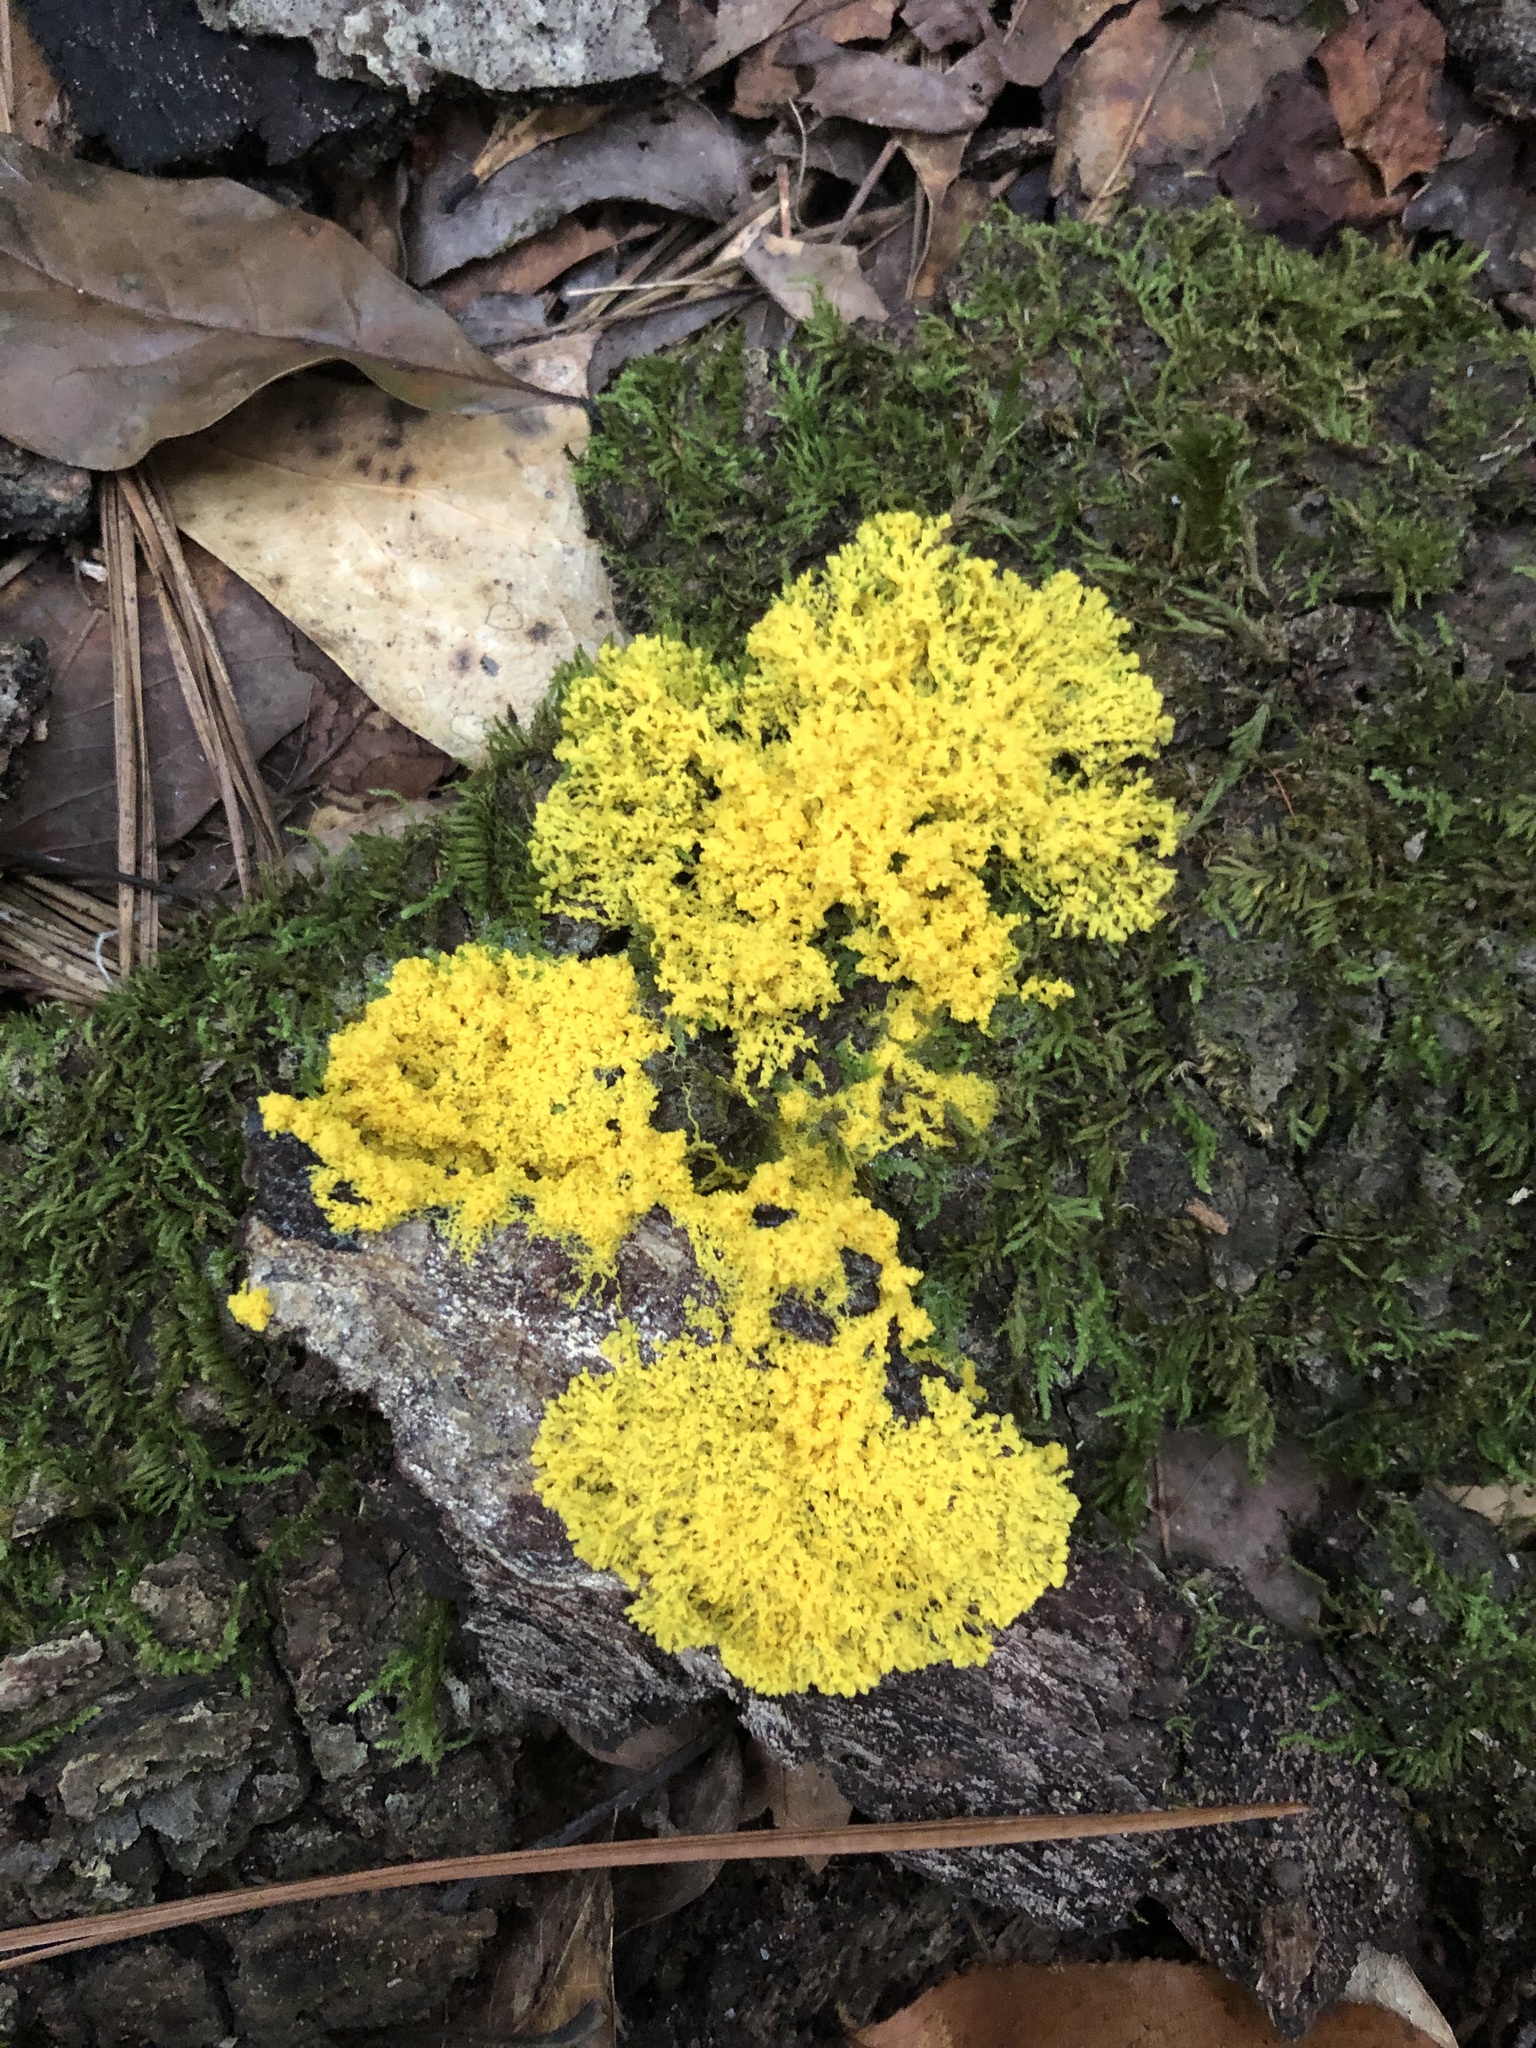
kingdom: Protozoa
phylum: Mycetozoa
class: Myxomycetes
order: Physarales
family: Physaraceae
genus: Fuligo
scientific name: Fuligo septica
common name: Dog vomit slime mold
